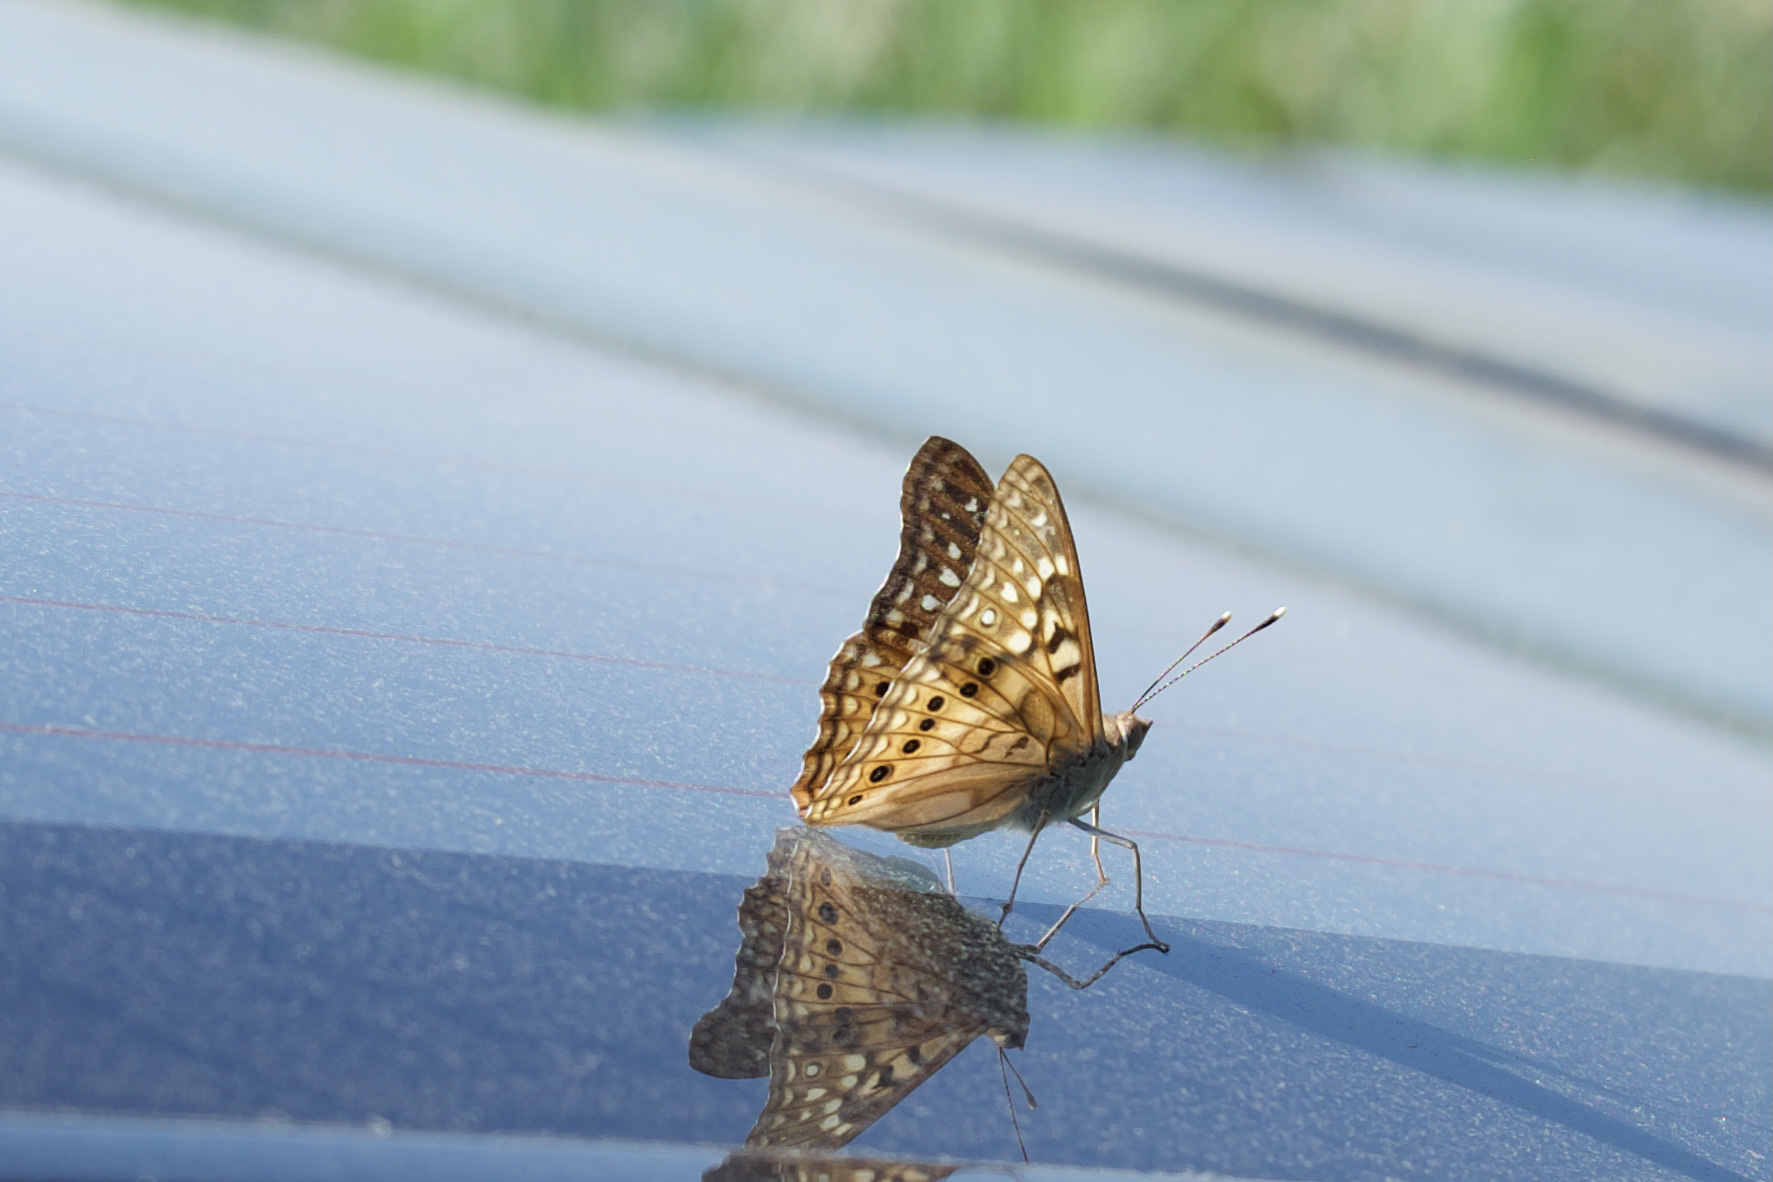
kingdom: Animalia
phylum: Arthropoda
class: Insecta
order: Lepidoptera
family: Nymphalidae
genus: Asterocampa
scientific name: Asterocampa clyton
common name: Tawny emperor
